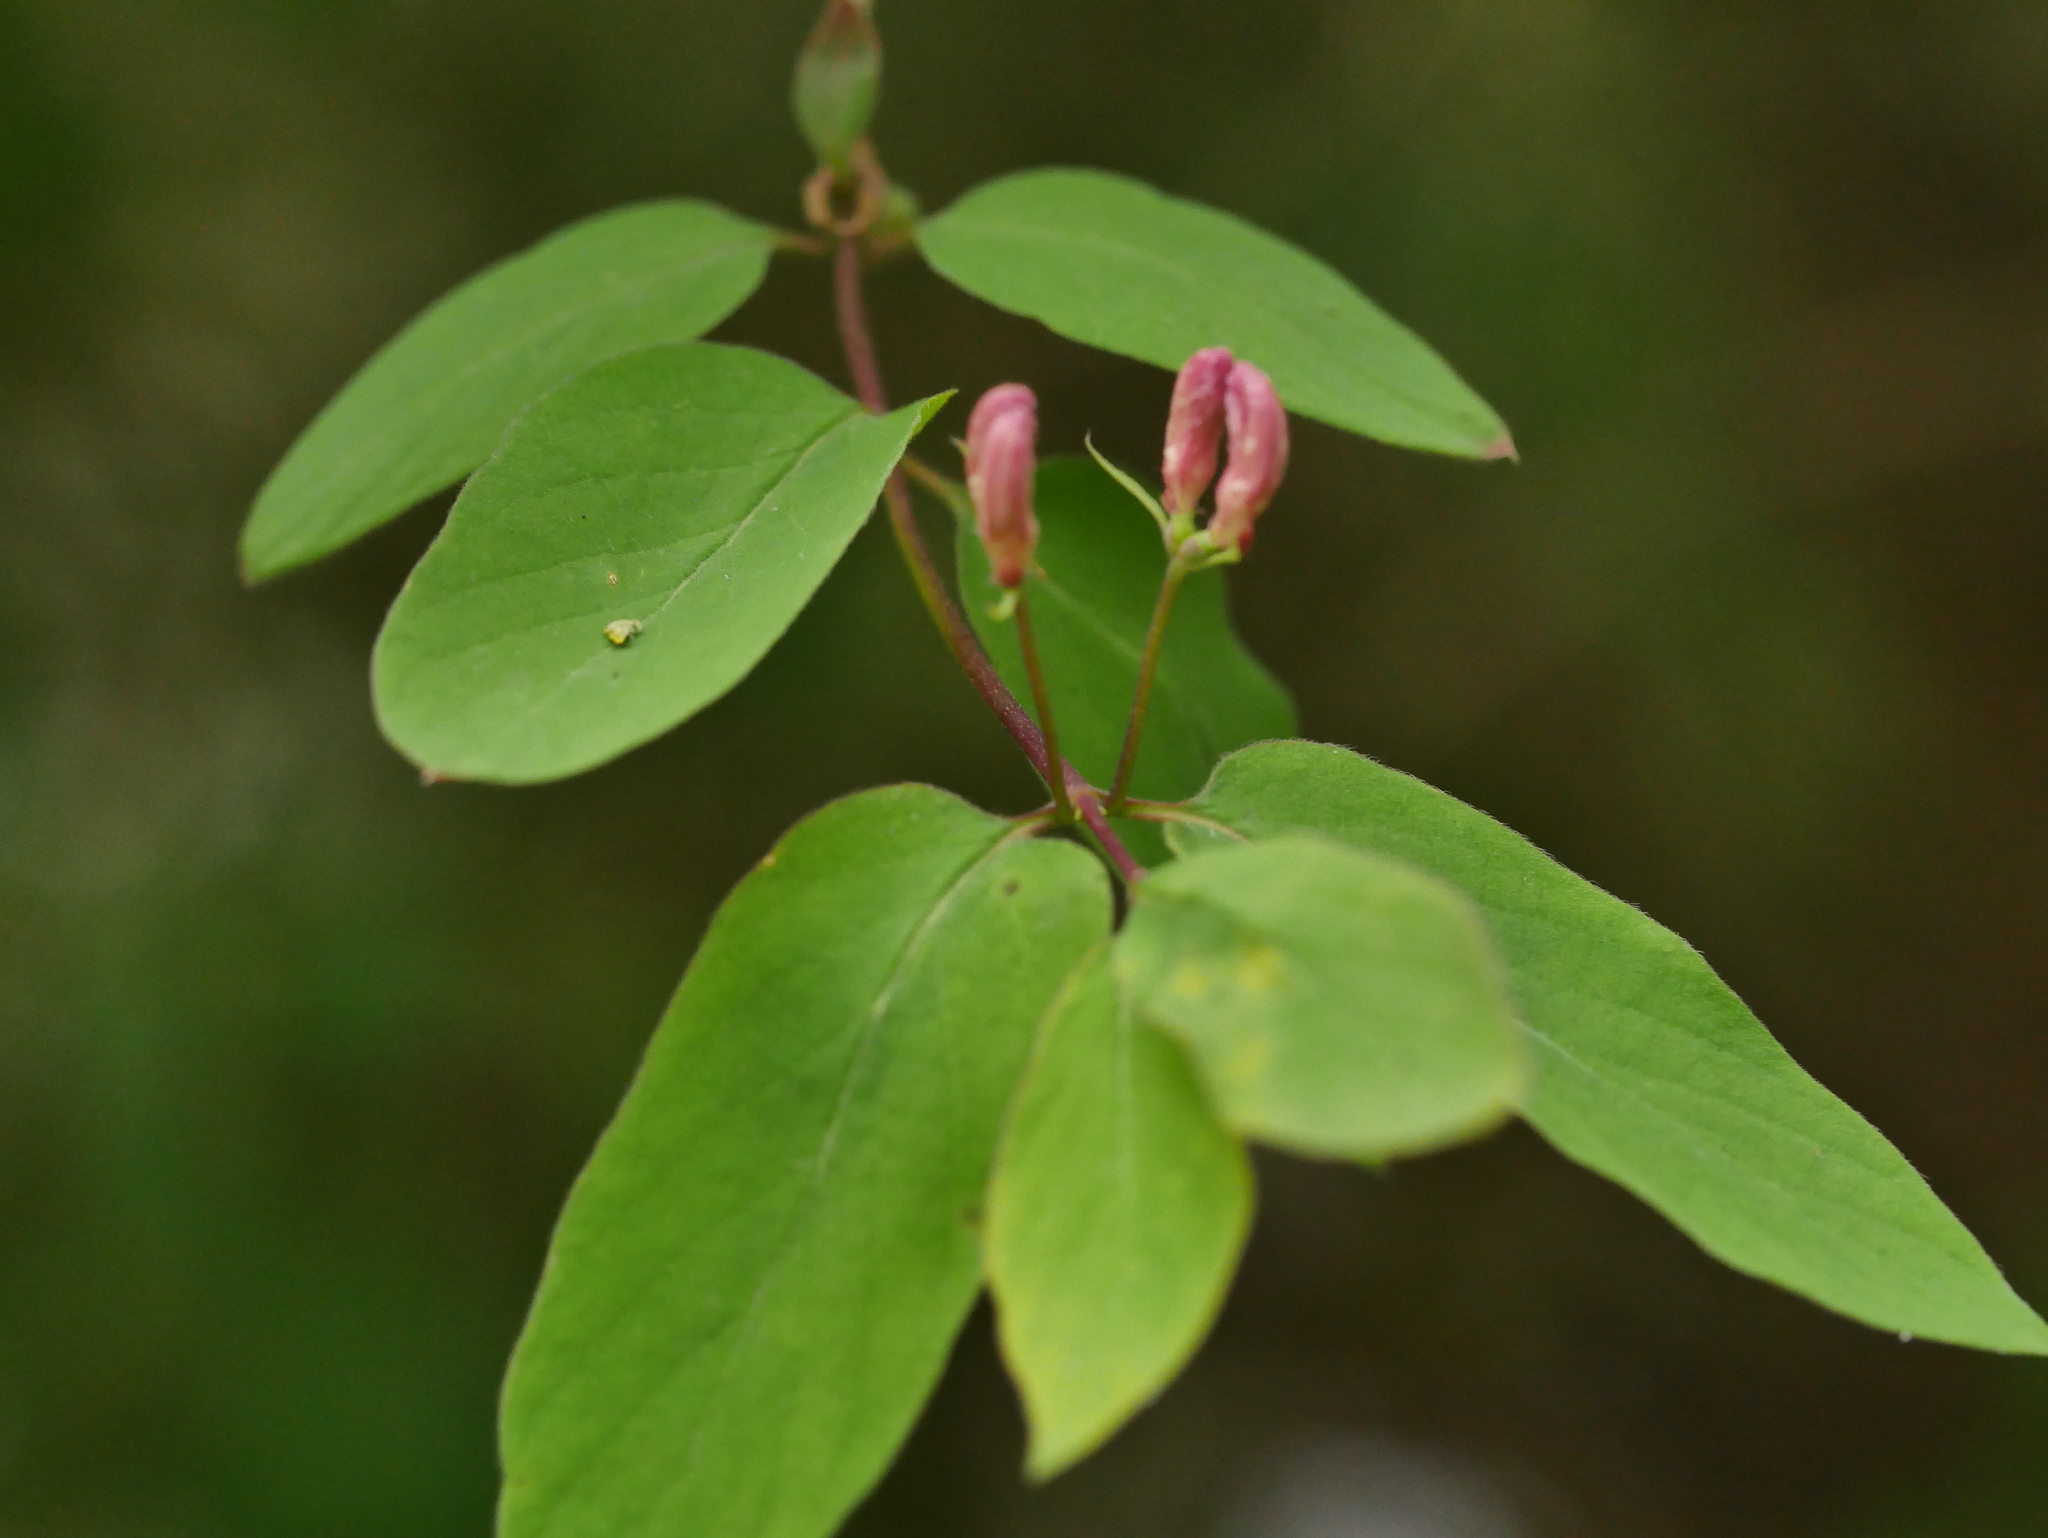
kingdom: Plantae
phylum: Tracheophyta
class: Magnoliopsida
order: Dipsacales
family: Caprifoliaceae
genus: Lonicera
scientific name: Lonicera tatarica
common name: Tatarian honeysuckle
